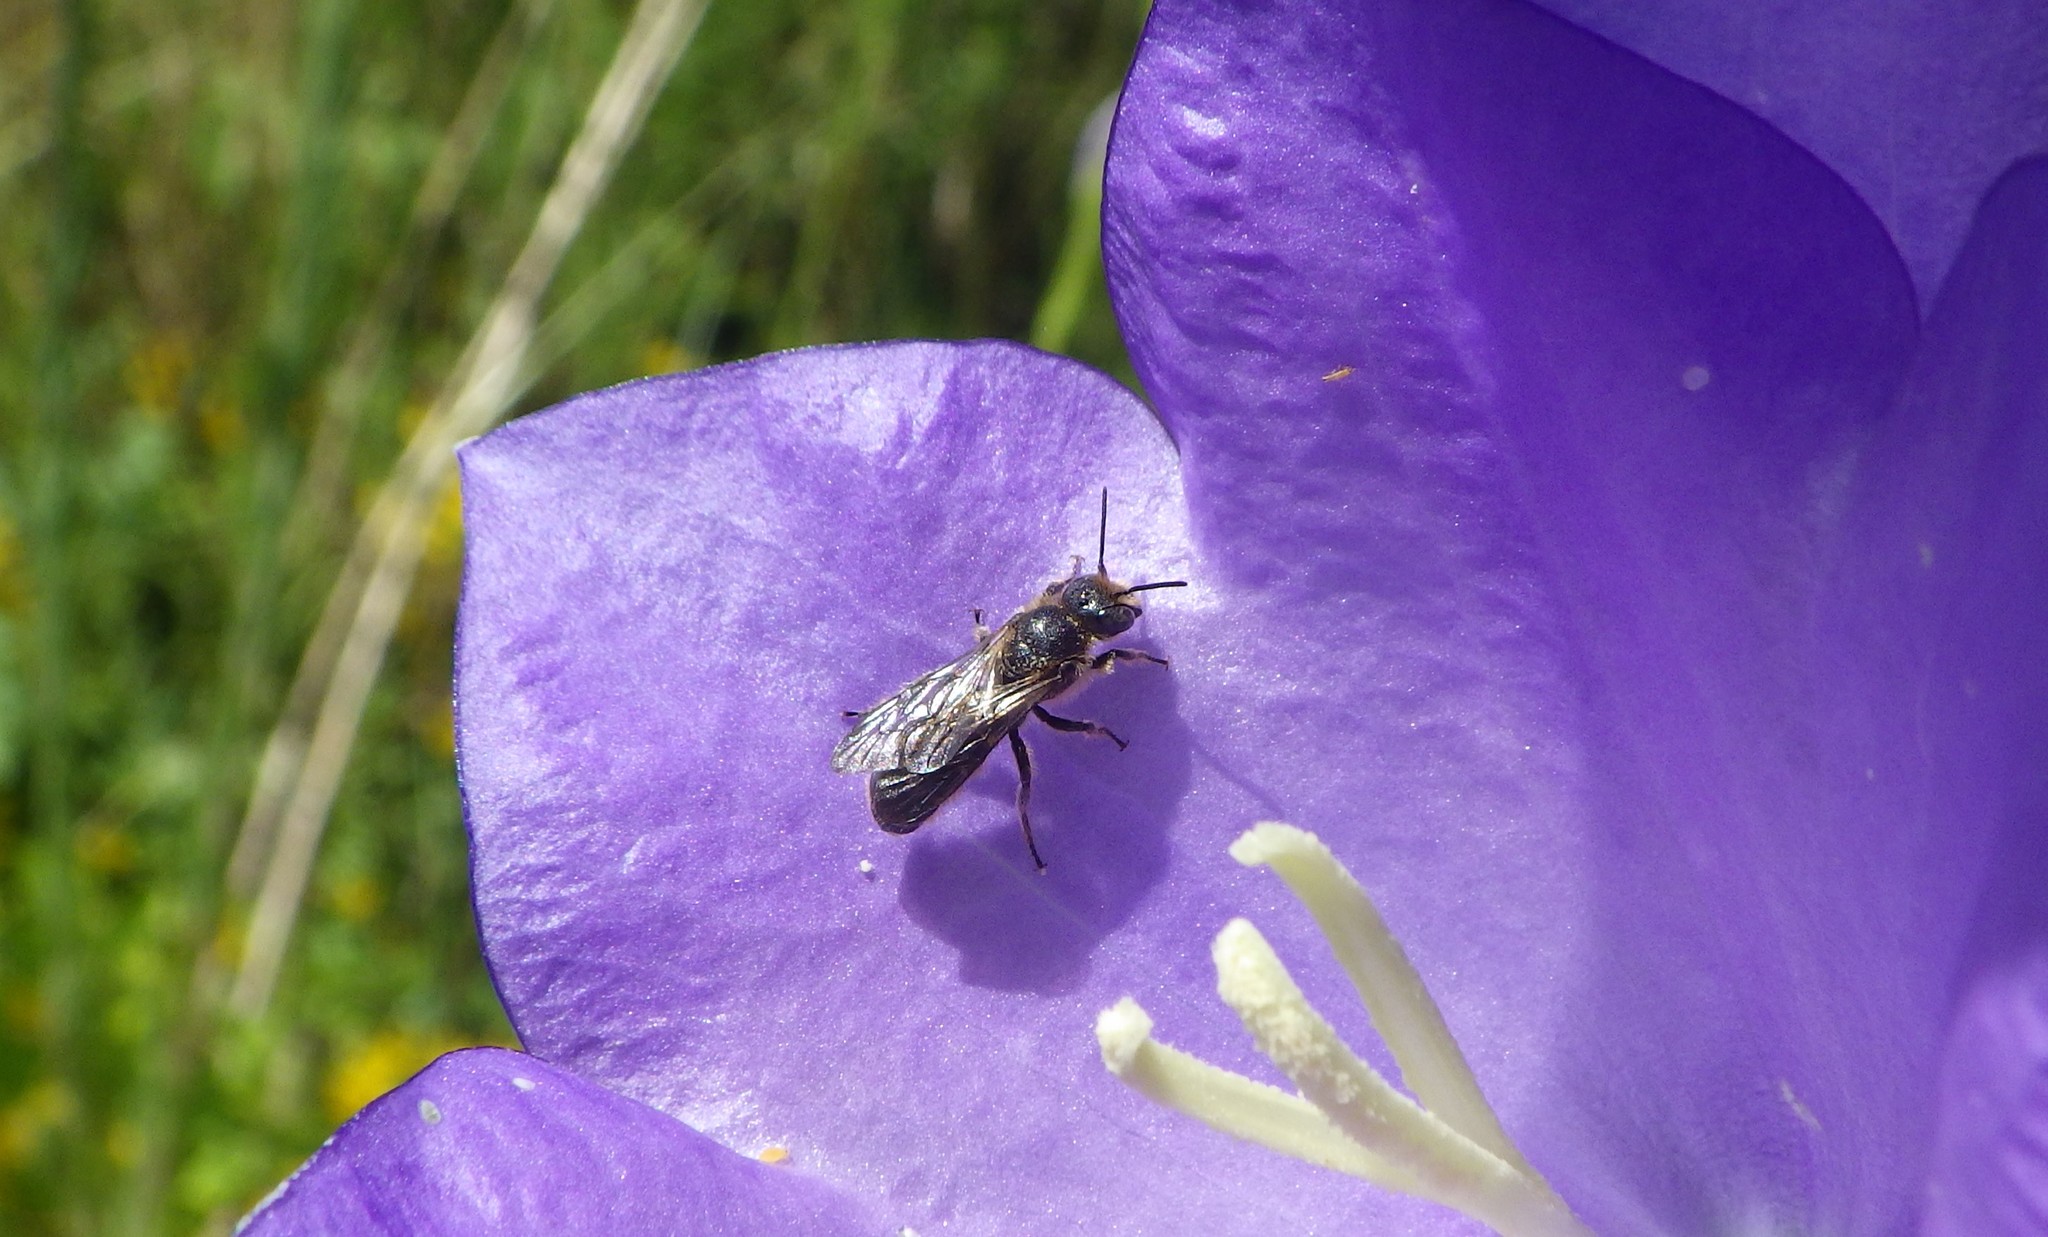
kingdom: Animalia
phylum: Arthropoda
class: Insecta
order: Hymenoptera
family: Megachilidae
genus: Chelostoma
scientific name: Chelostoma rapunculi
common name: Rampion scissor bee
